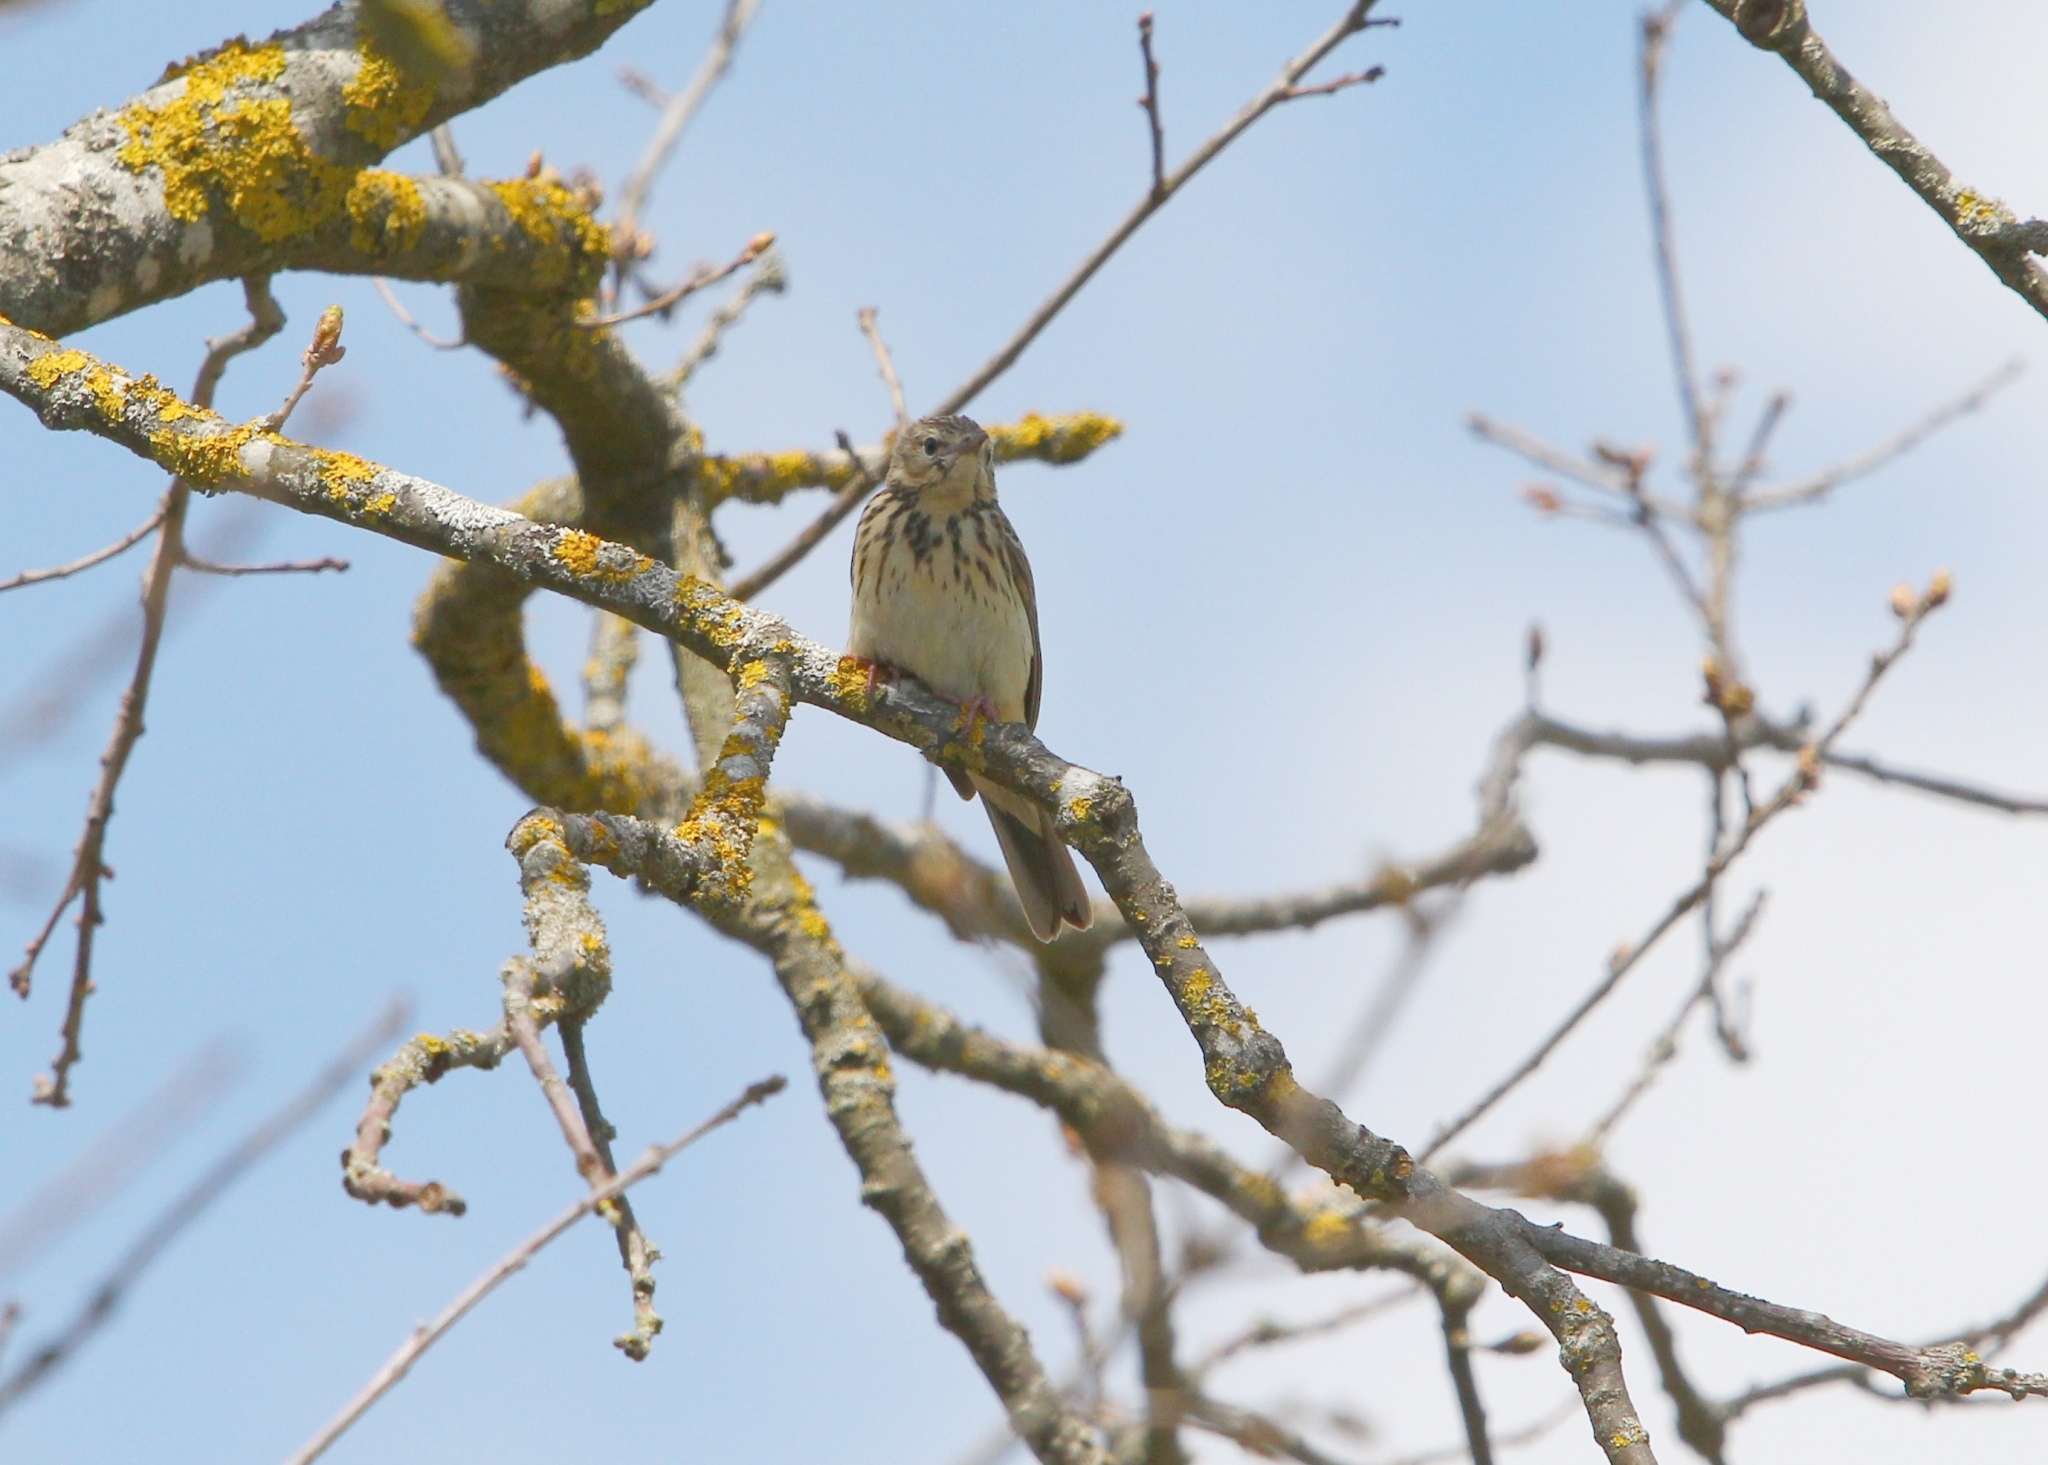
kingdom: Animalia
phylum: Chordata
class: Aves
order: Passeriformes
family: Motacillidae
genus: Anthus
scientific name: Anthus trivialis
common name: Tree pipit
